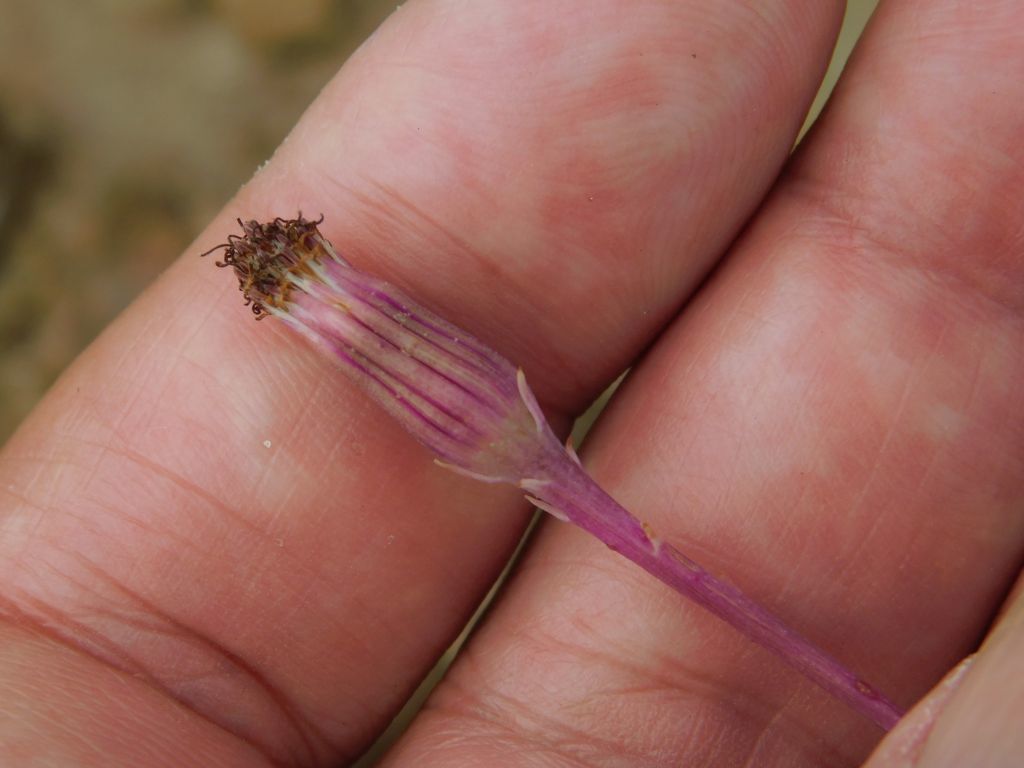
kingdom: Plantae
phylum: Tracheophyta
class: Magnoliopsida
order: Asterales
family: Asteraceae
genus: Curio
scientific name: Curio radicans
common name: Creeping-berry
